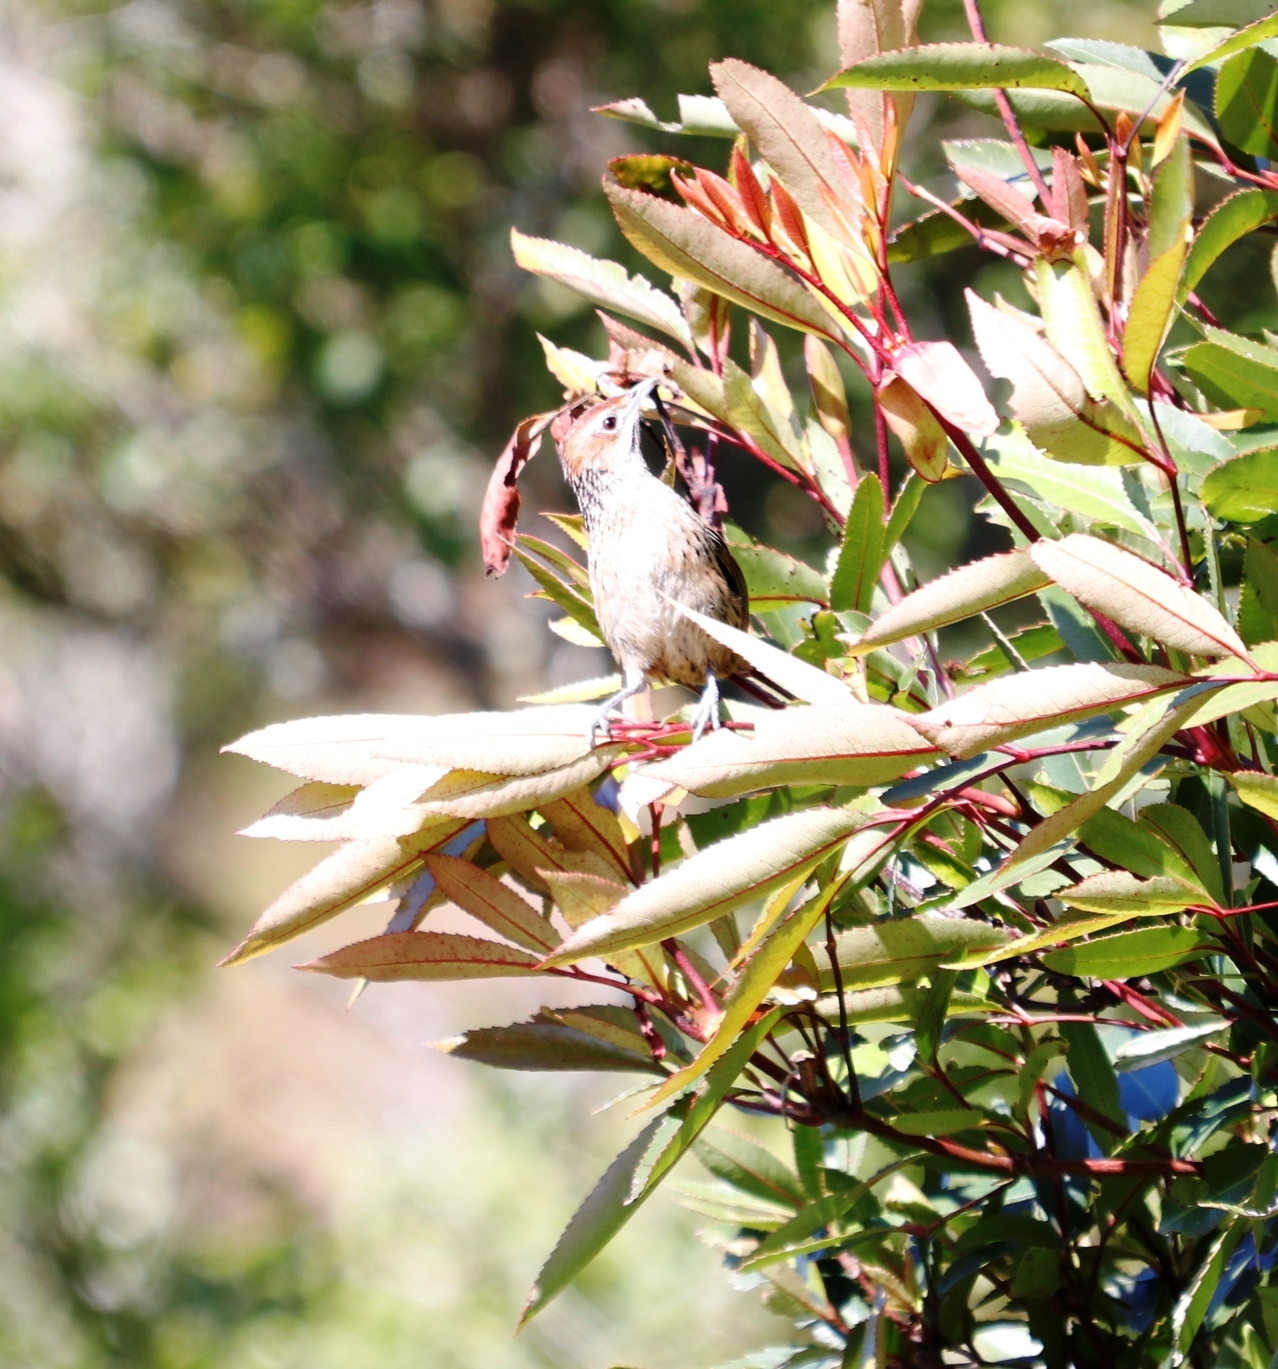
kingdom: Plantae
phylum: Tracheophyta
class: Magnoliopsida
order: Oxalidales
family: Cunoniaceae
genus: Cunonia
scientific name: Cunonia capensis
